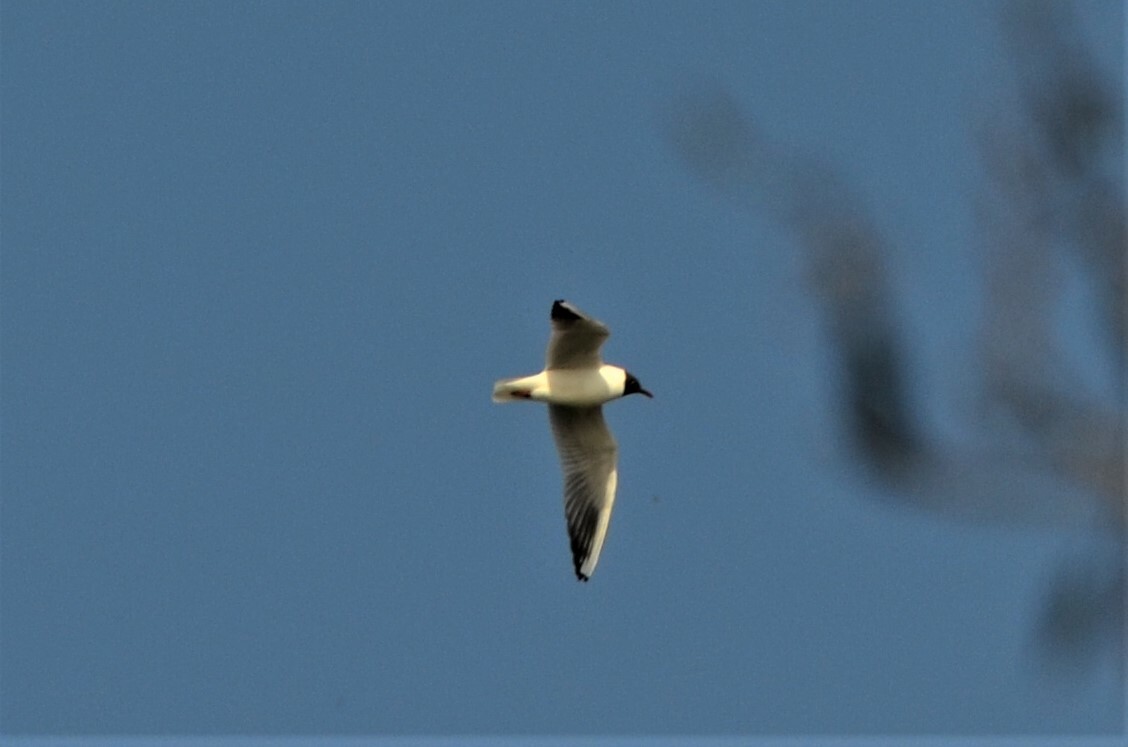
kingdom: Animalia
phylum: Chordata
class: Aves
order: Charadriiformes
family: Laridae
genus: Chroicocephalus
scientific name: Chroicocephalus ridibundus
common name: Black-headed gull
